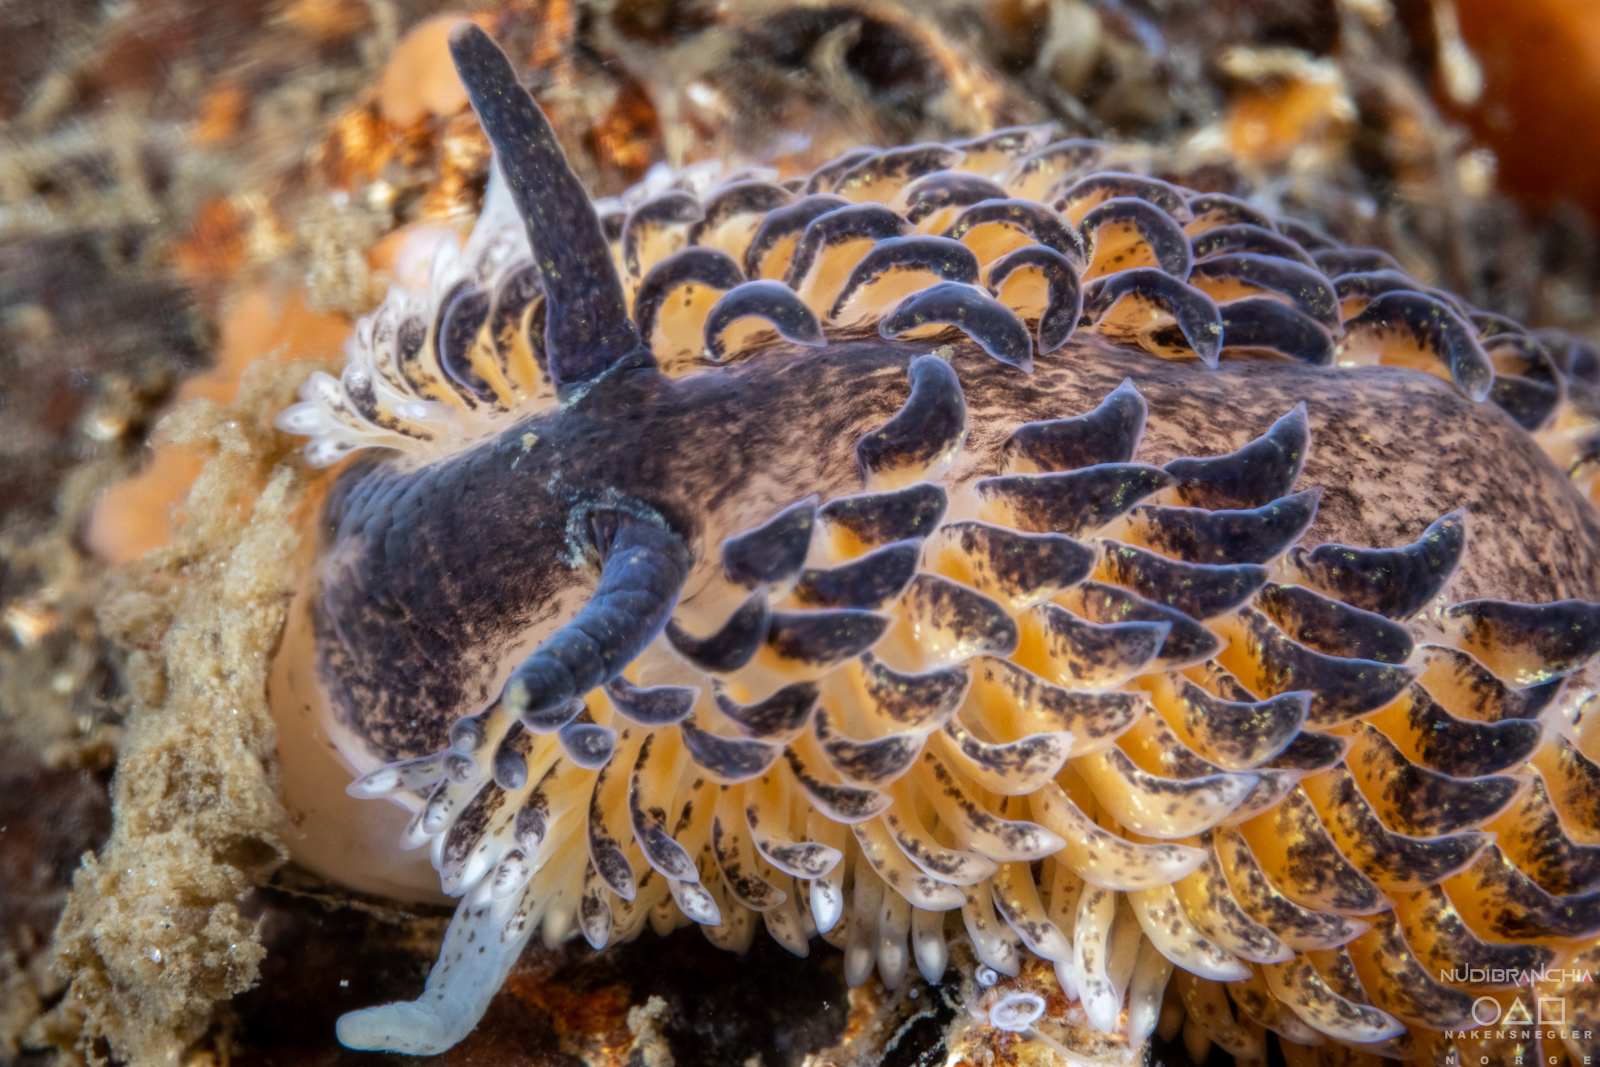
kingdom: Animalia
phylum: Mollusca
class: Gastropoda
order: Nudibranchia
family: Aeolidiidae
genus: Aeolidia
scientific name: Aeolidia papillosa
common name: Common grey sea slug
